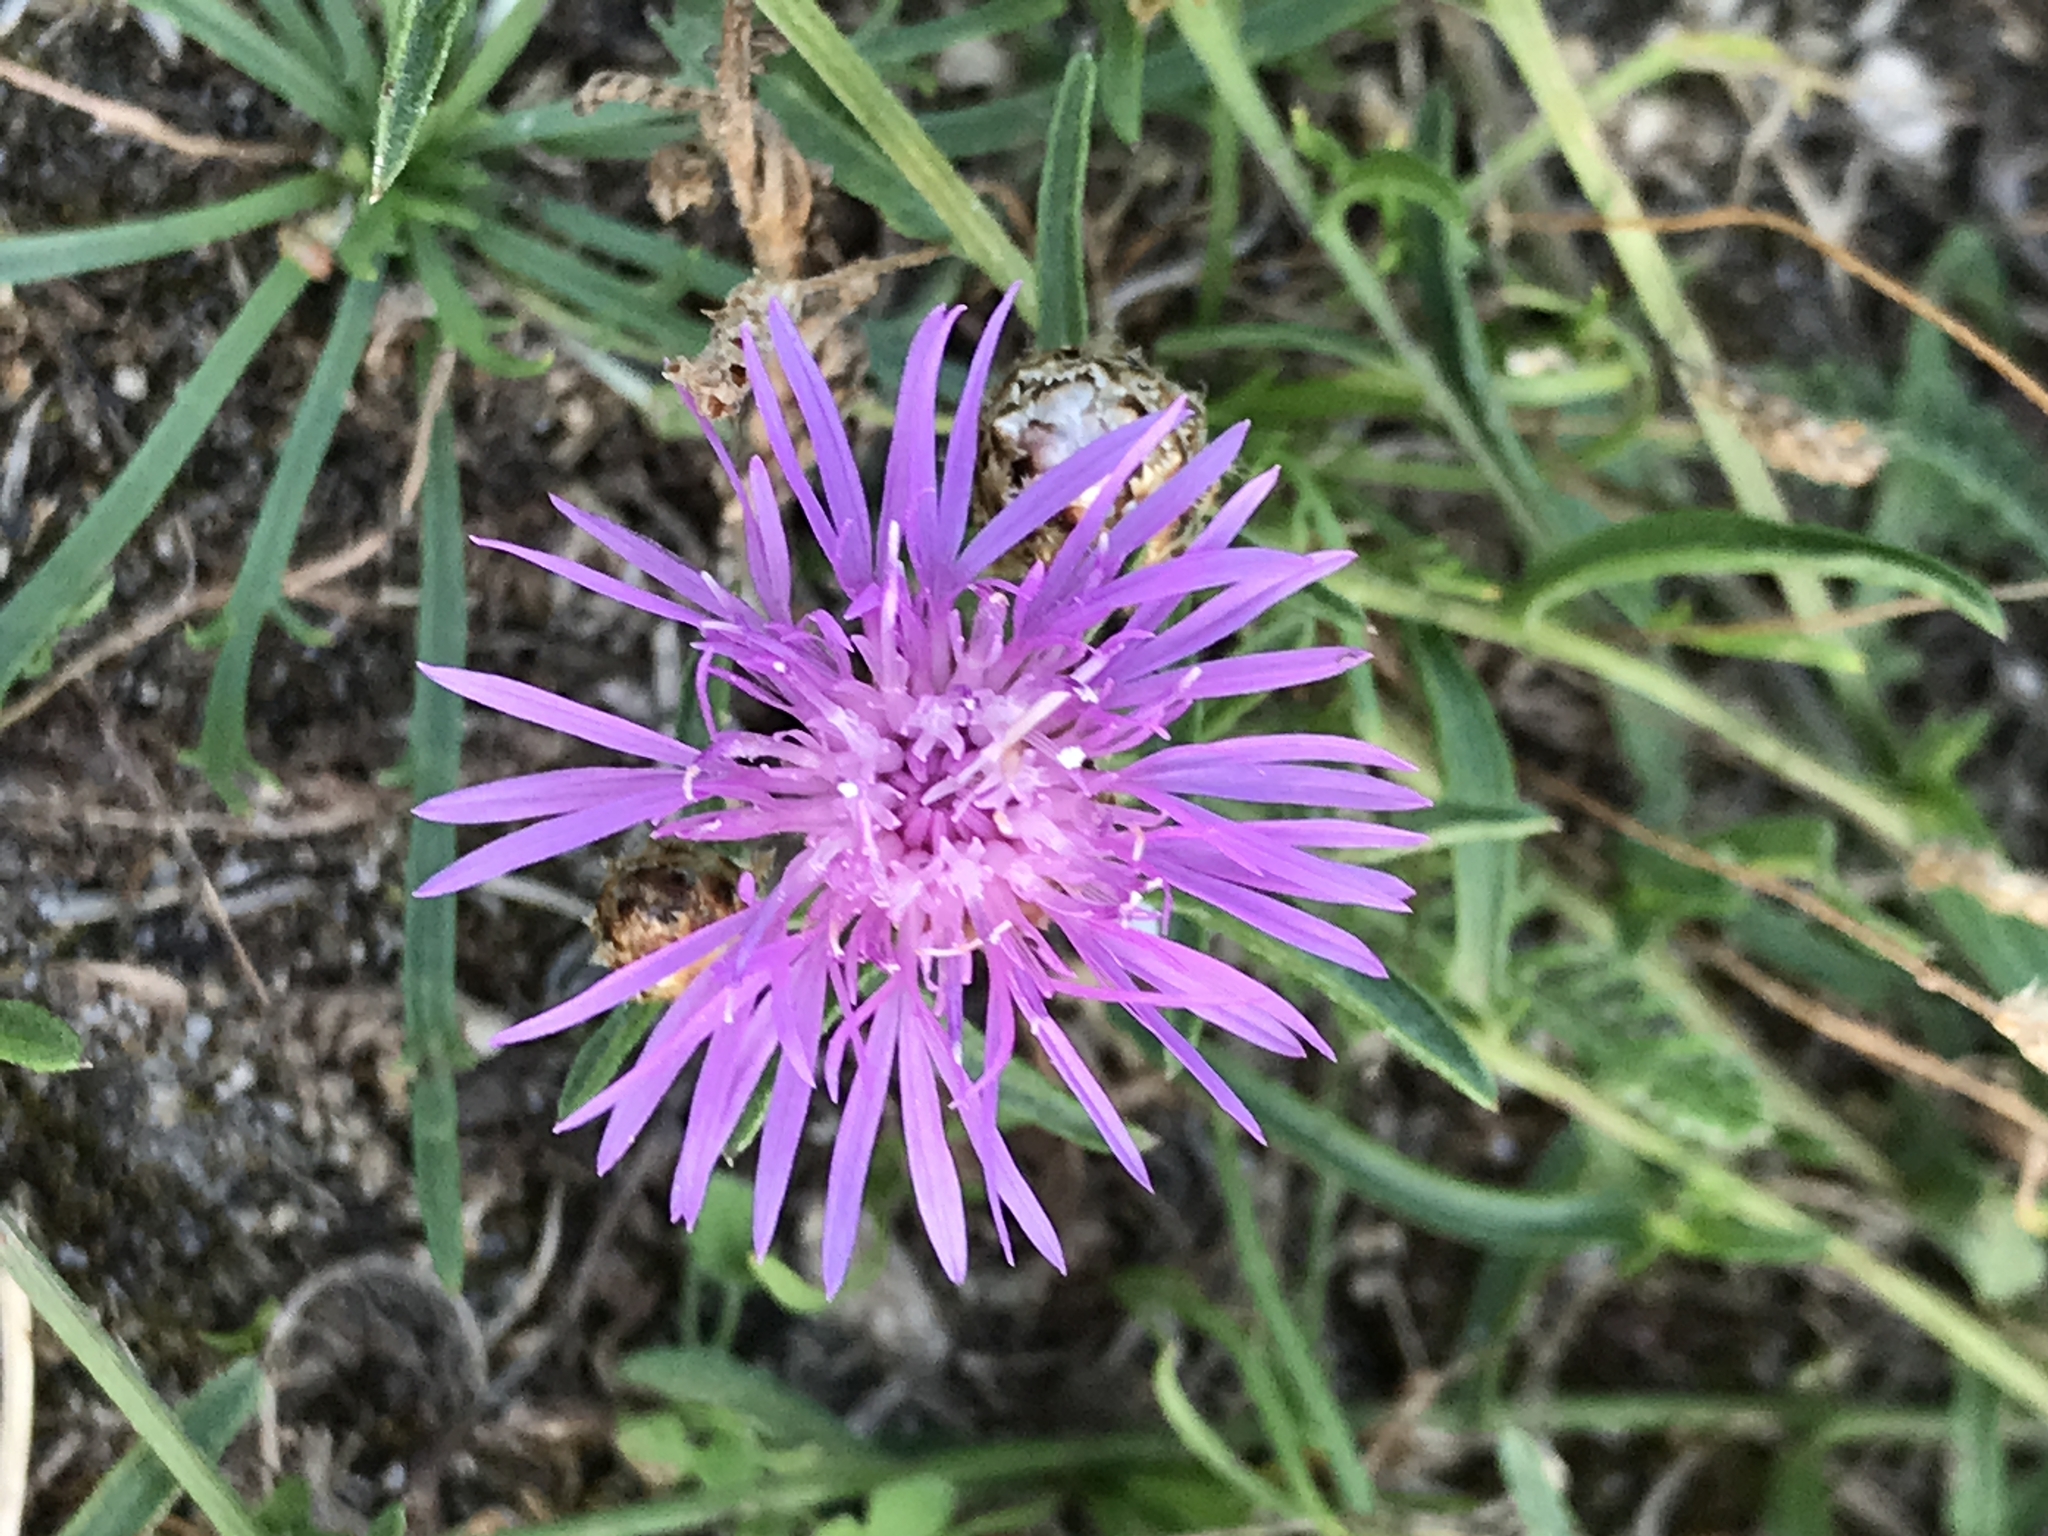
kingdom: Plantae
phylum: Tracheophyta
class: Magnoliopsida
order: Asterales
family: Asteraceae
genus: Centaurea
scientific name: Centaurea jacea
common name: Brown knapweed
